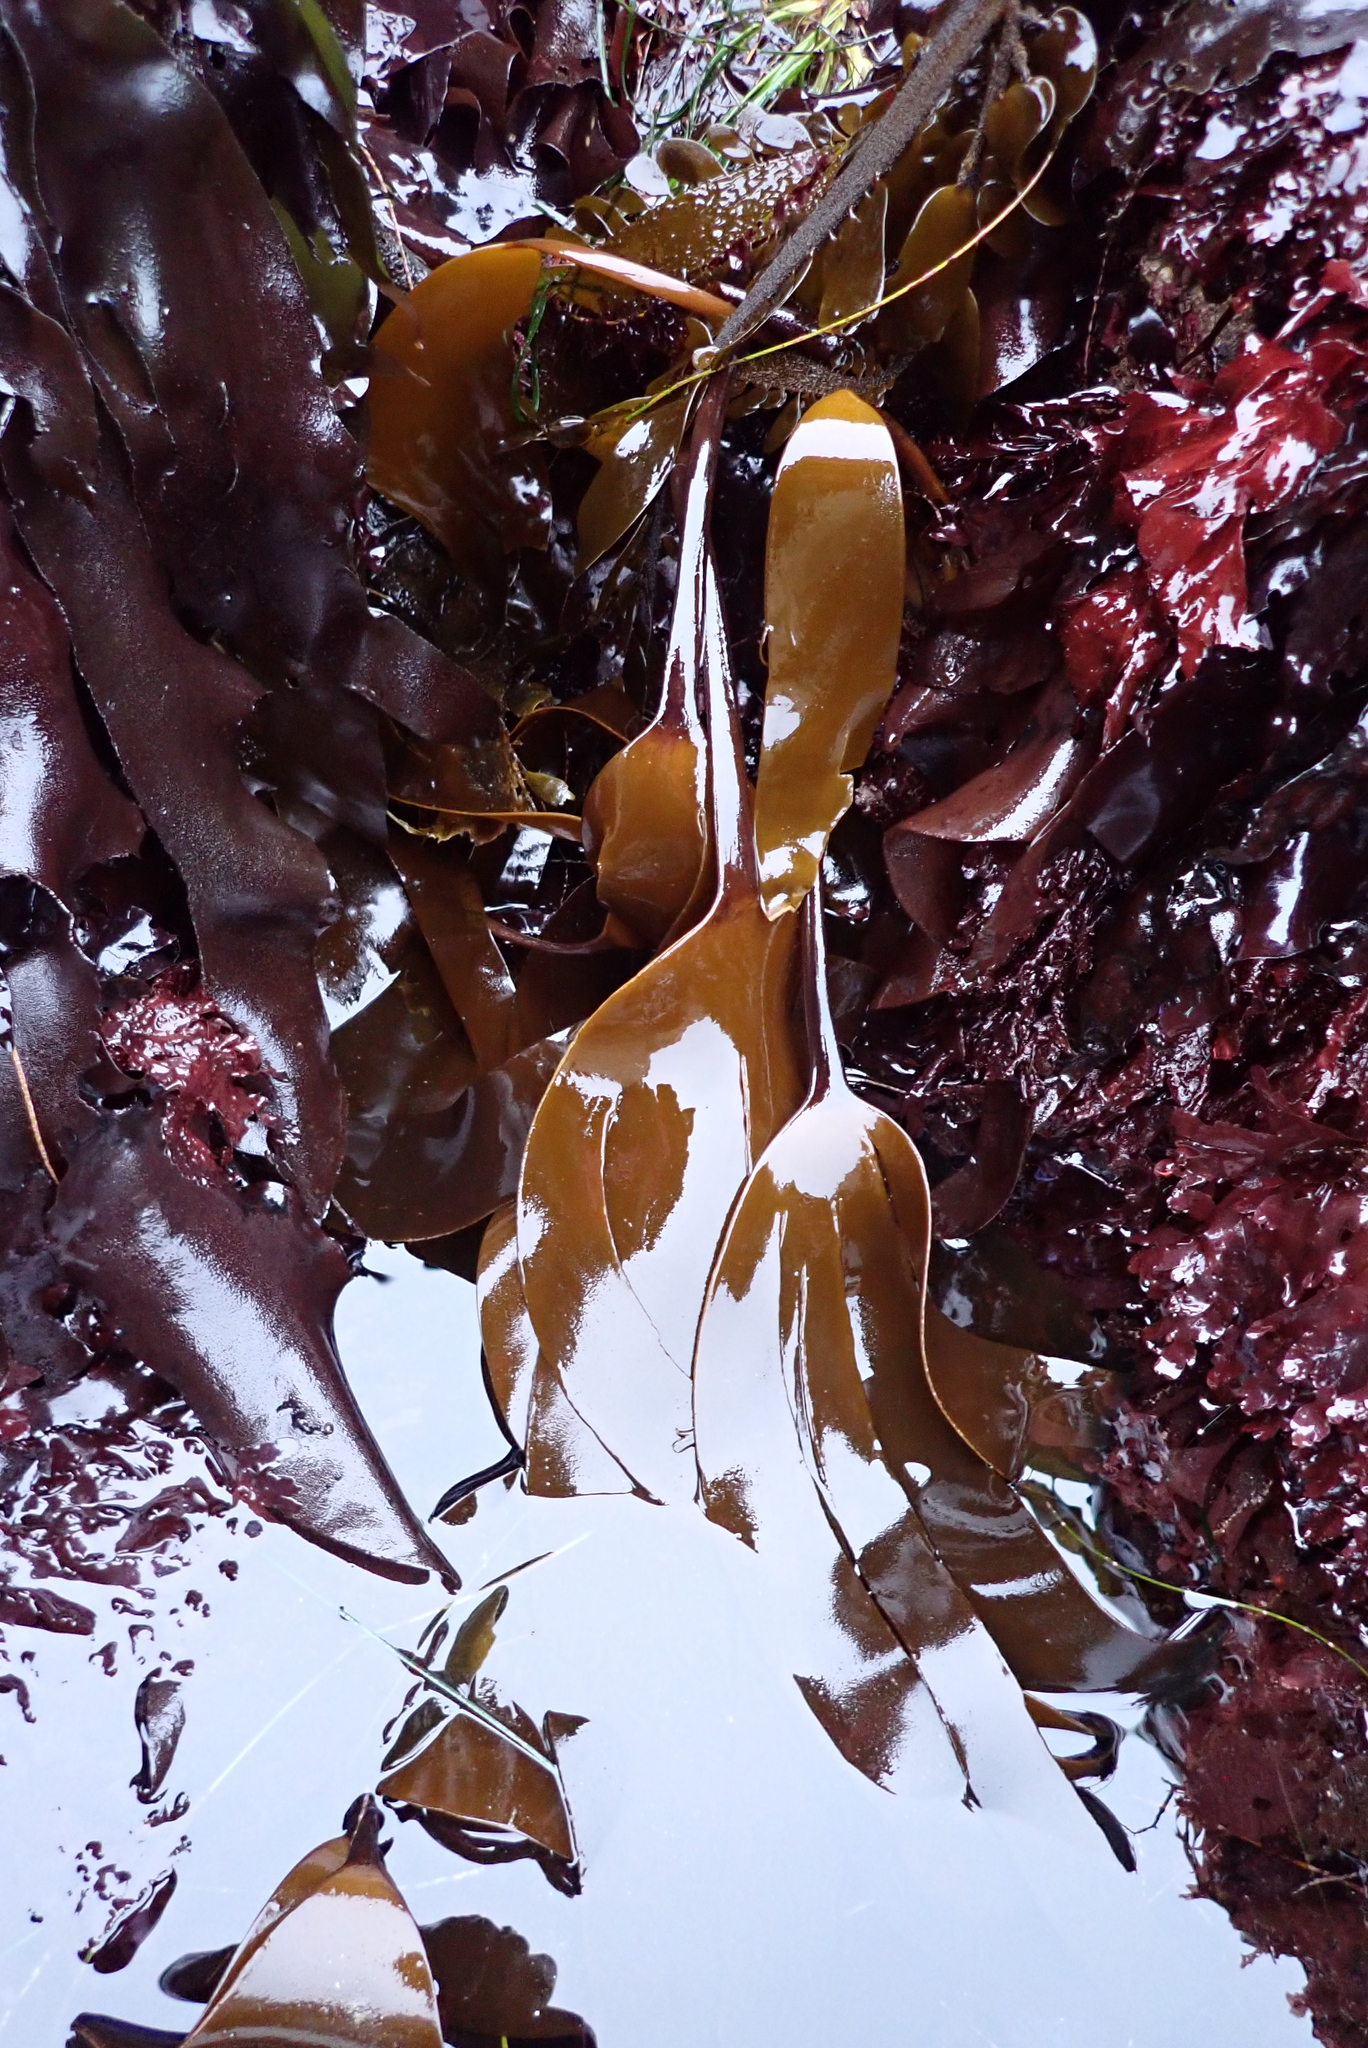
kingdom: Chromista
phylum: Ochrophyta
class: Phaeophyceae
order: Laminariales
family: Laminariaceae
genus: Laminaria
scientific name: Laminaria setchellii
